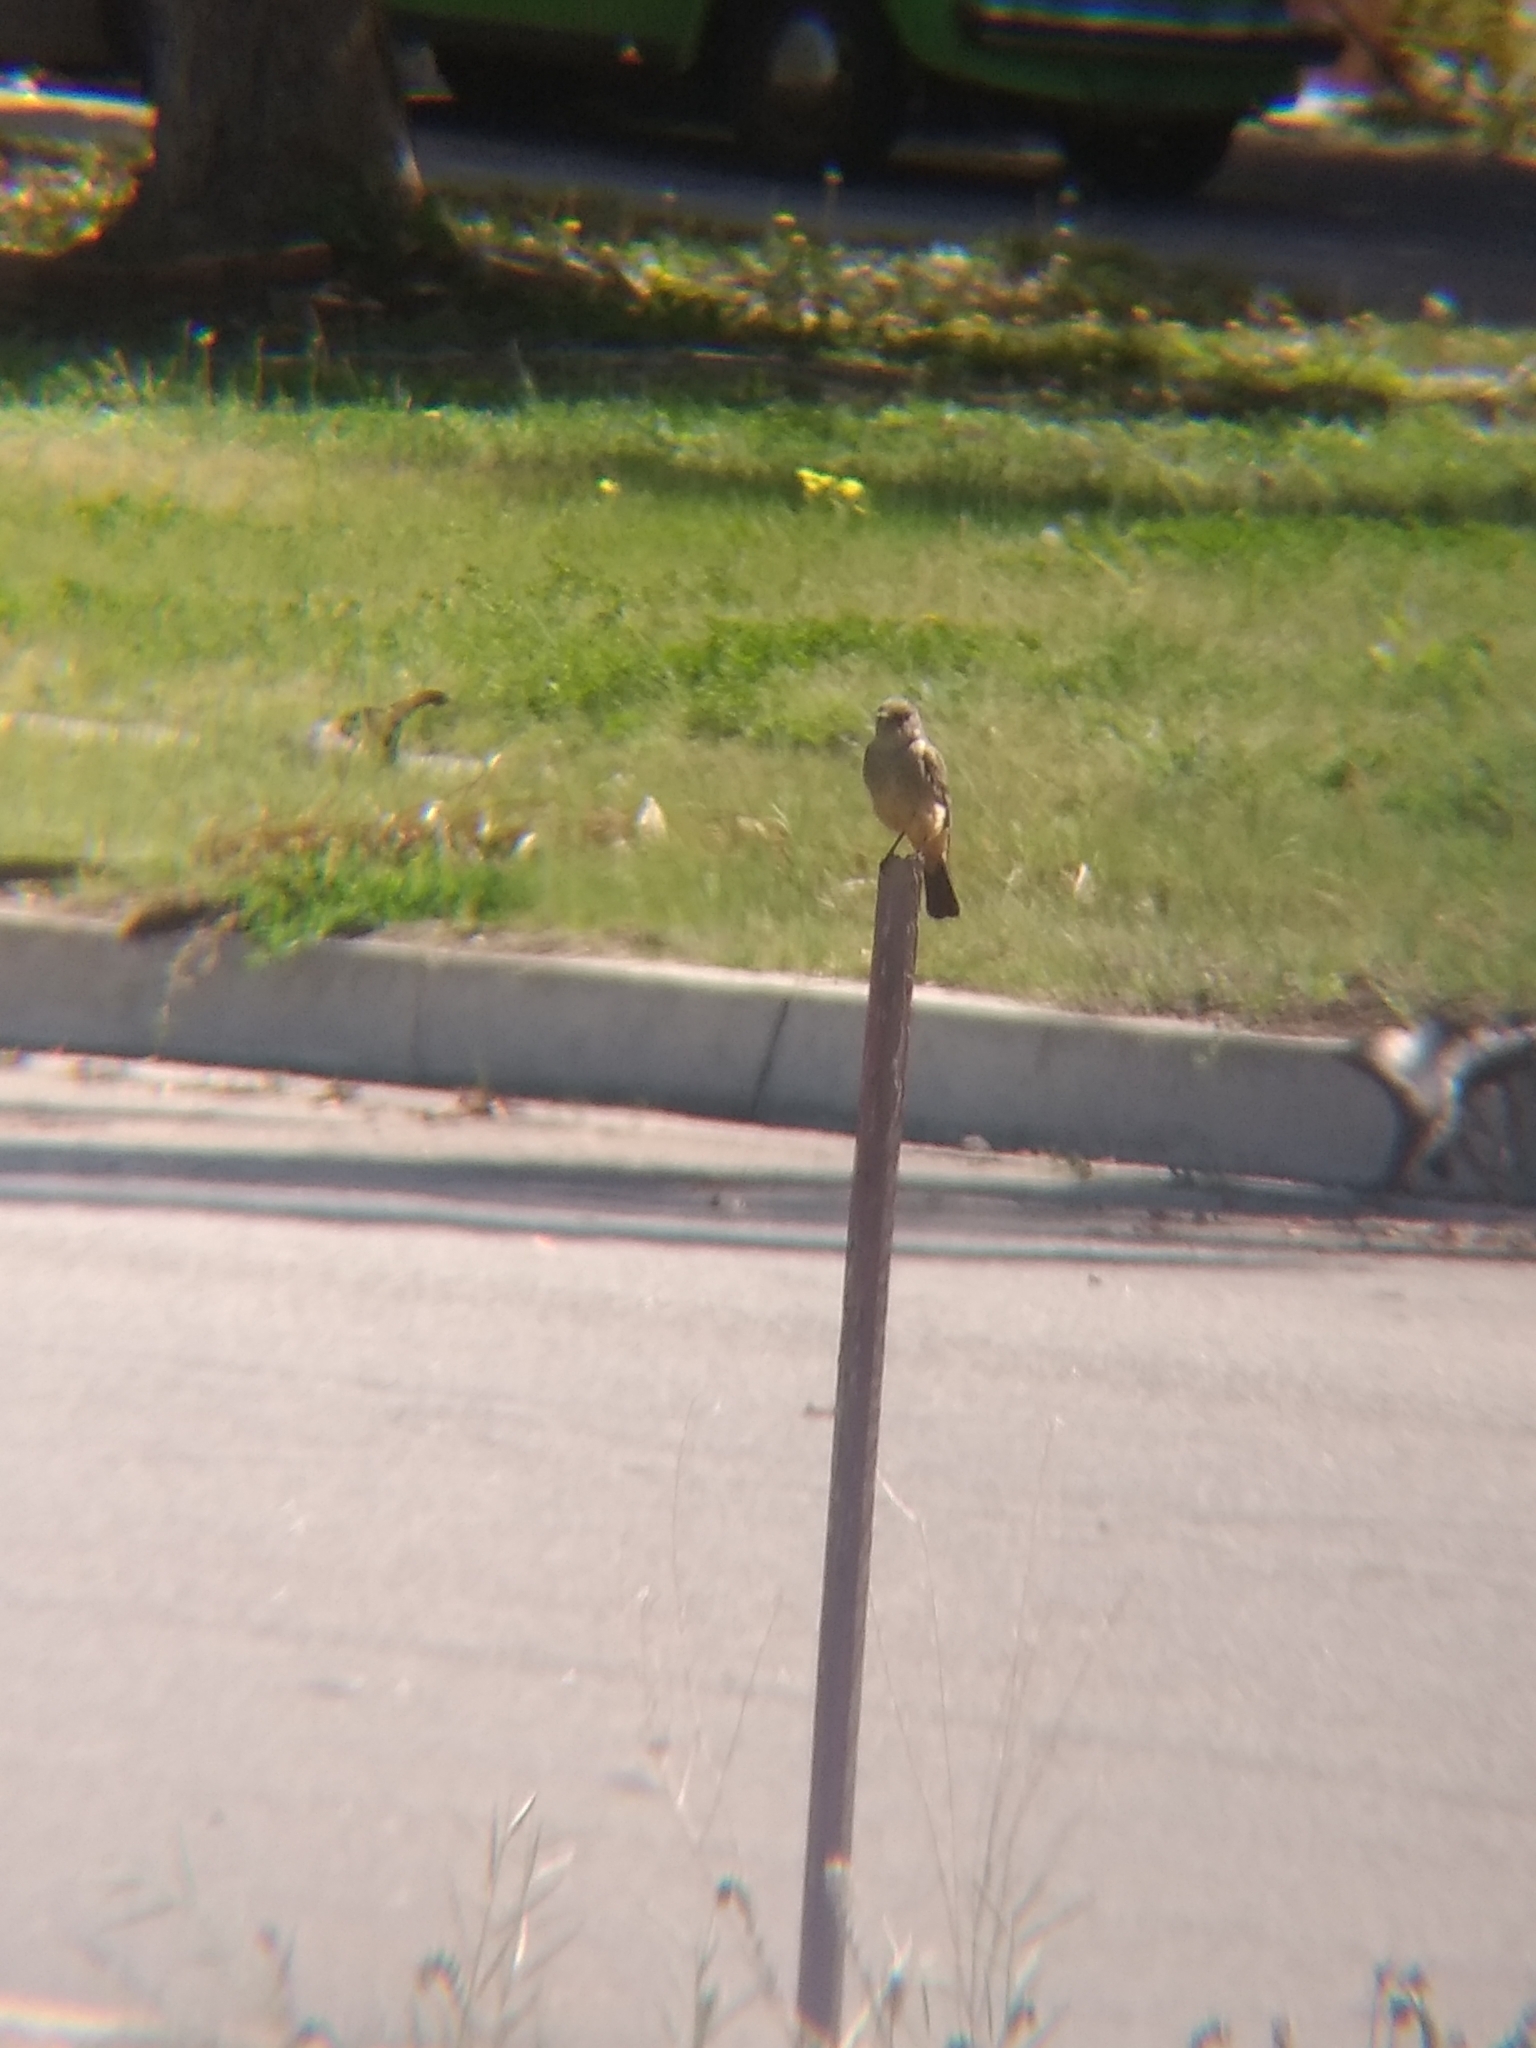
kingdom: Animalia
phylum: Chordata
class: Aves
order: Passeriformes
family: Tyrannidae
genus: Sayornis
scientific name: Sayornis saya
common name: Say's phoebe
